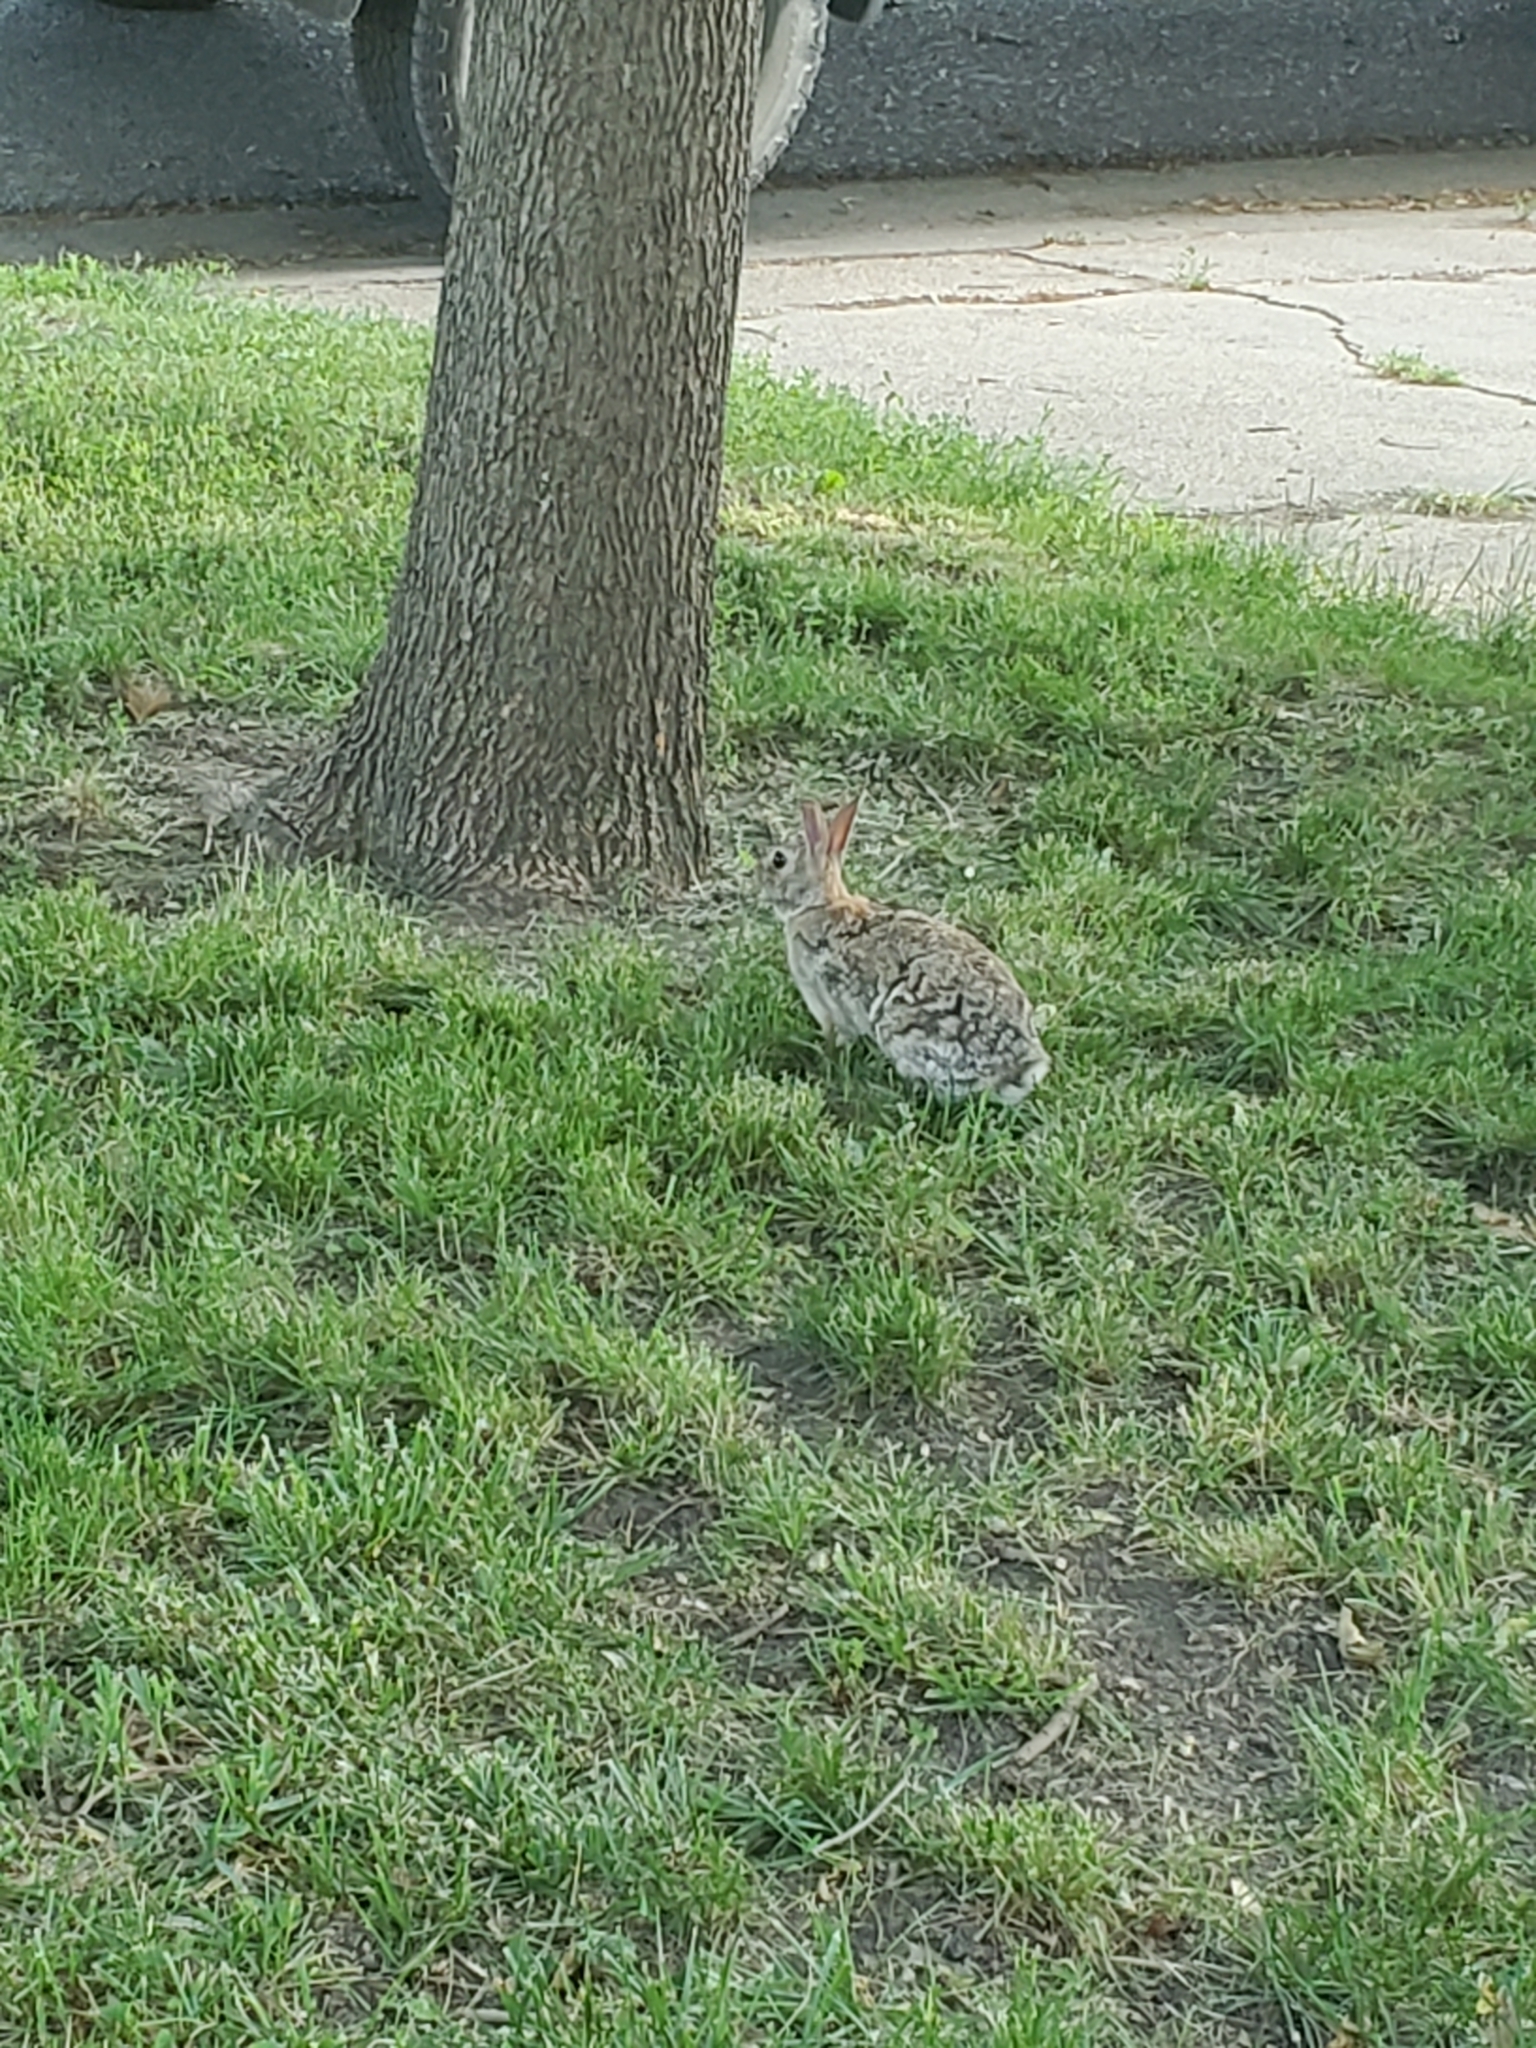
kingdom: Animalia
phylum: Chordata
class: Mammalia
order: Lagomorpha
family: Leporidae
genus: Sylvilagus
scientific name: Sylvilagus floridanus
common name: Eastern cottontail
